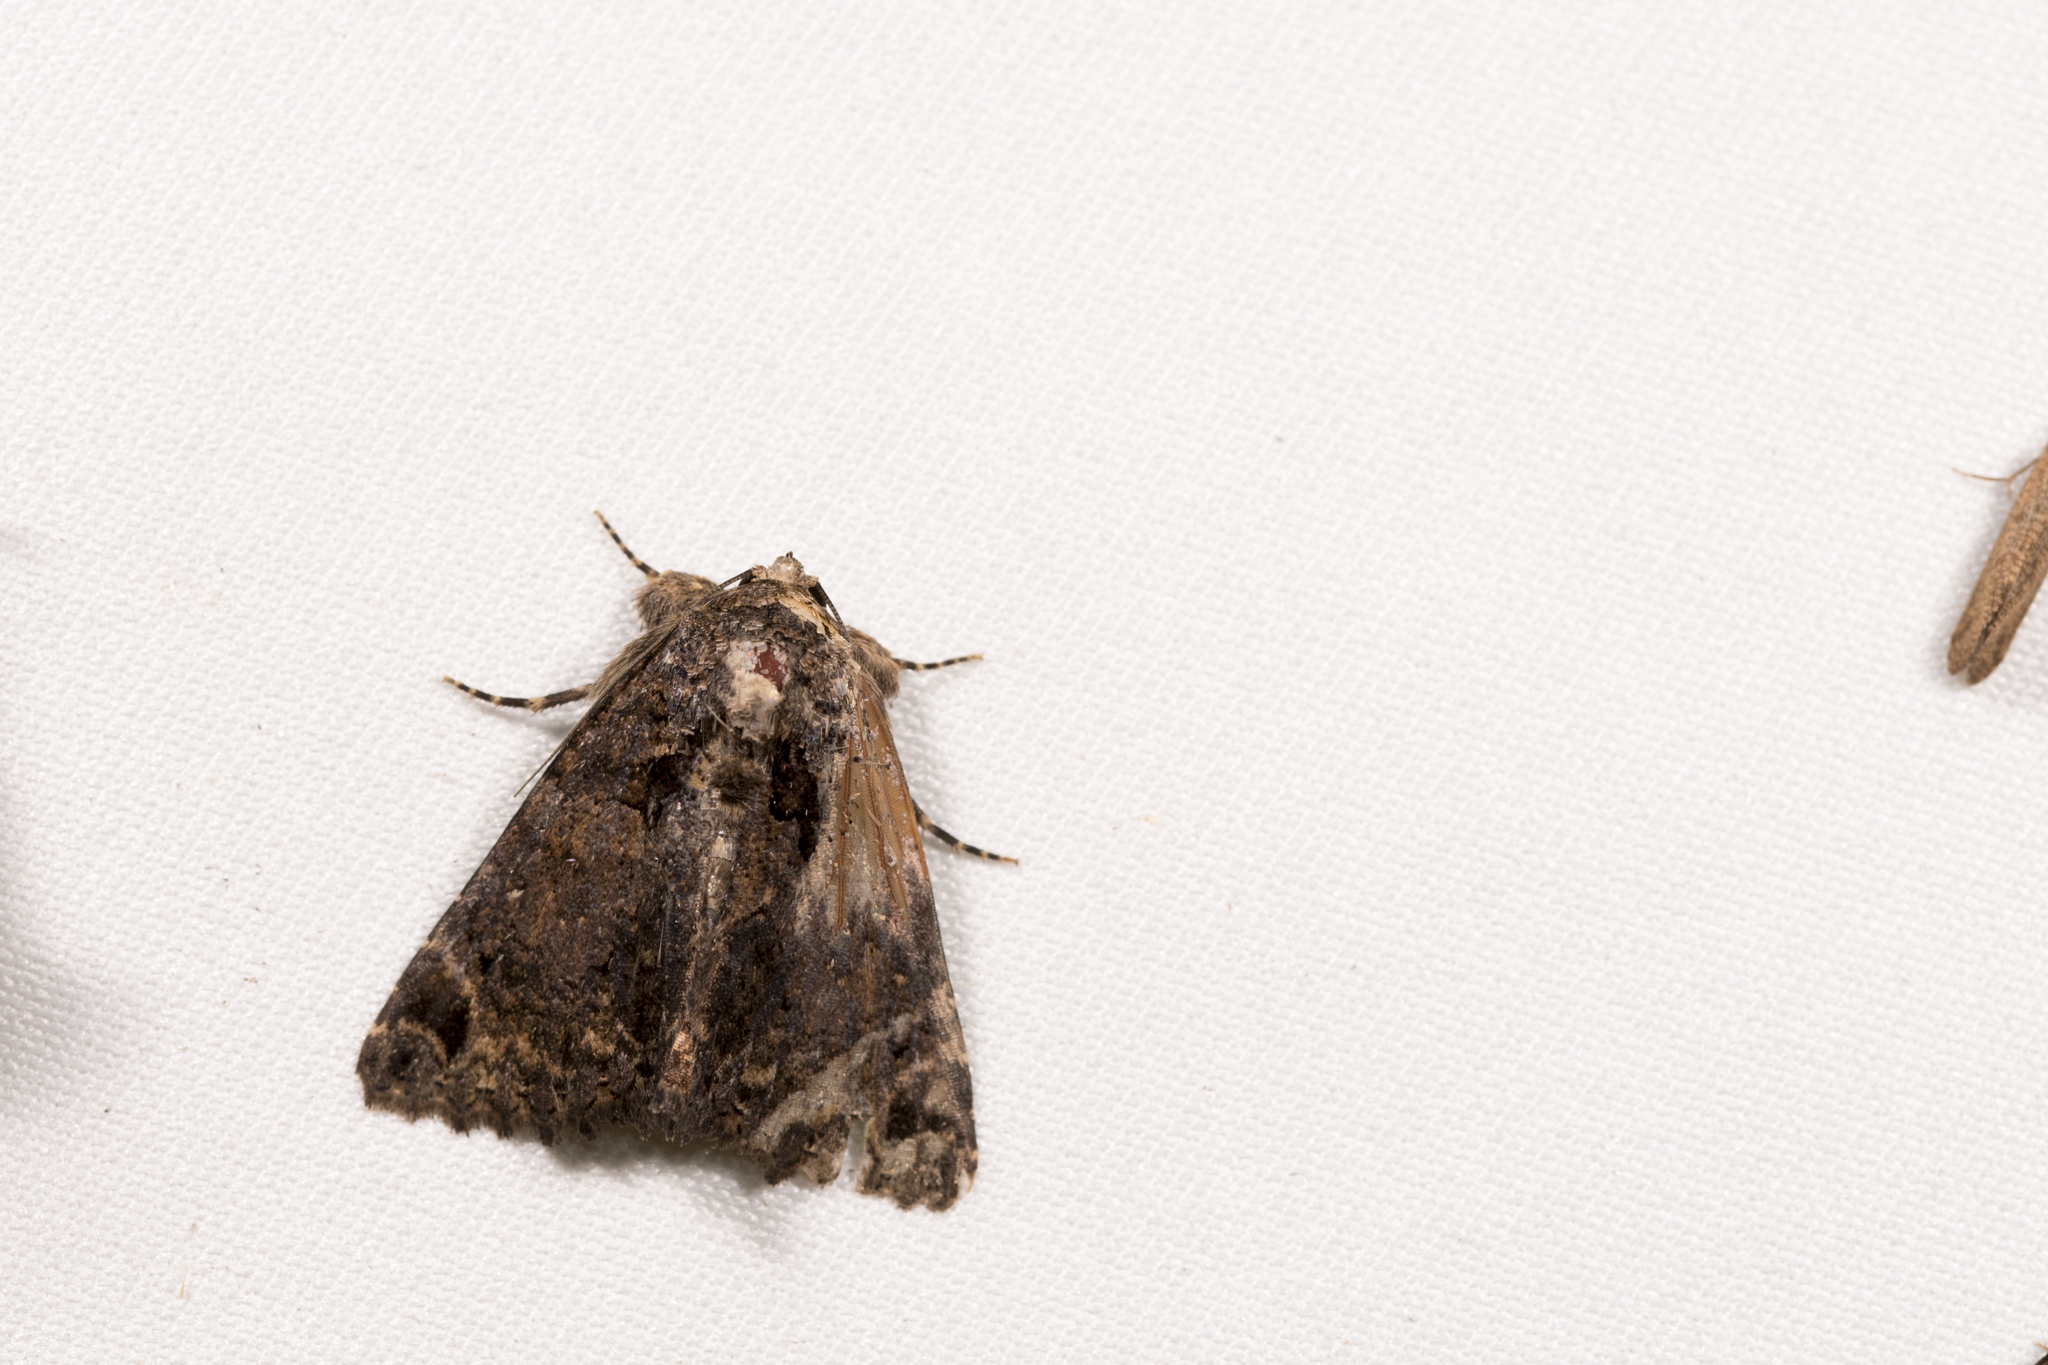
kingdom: Animalia
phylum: Arthropoda
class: Insecta
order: Lepidoptera
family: Erebidae
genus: Erygia
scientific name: Erygia apicalis
